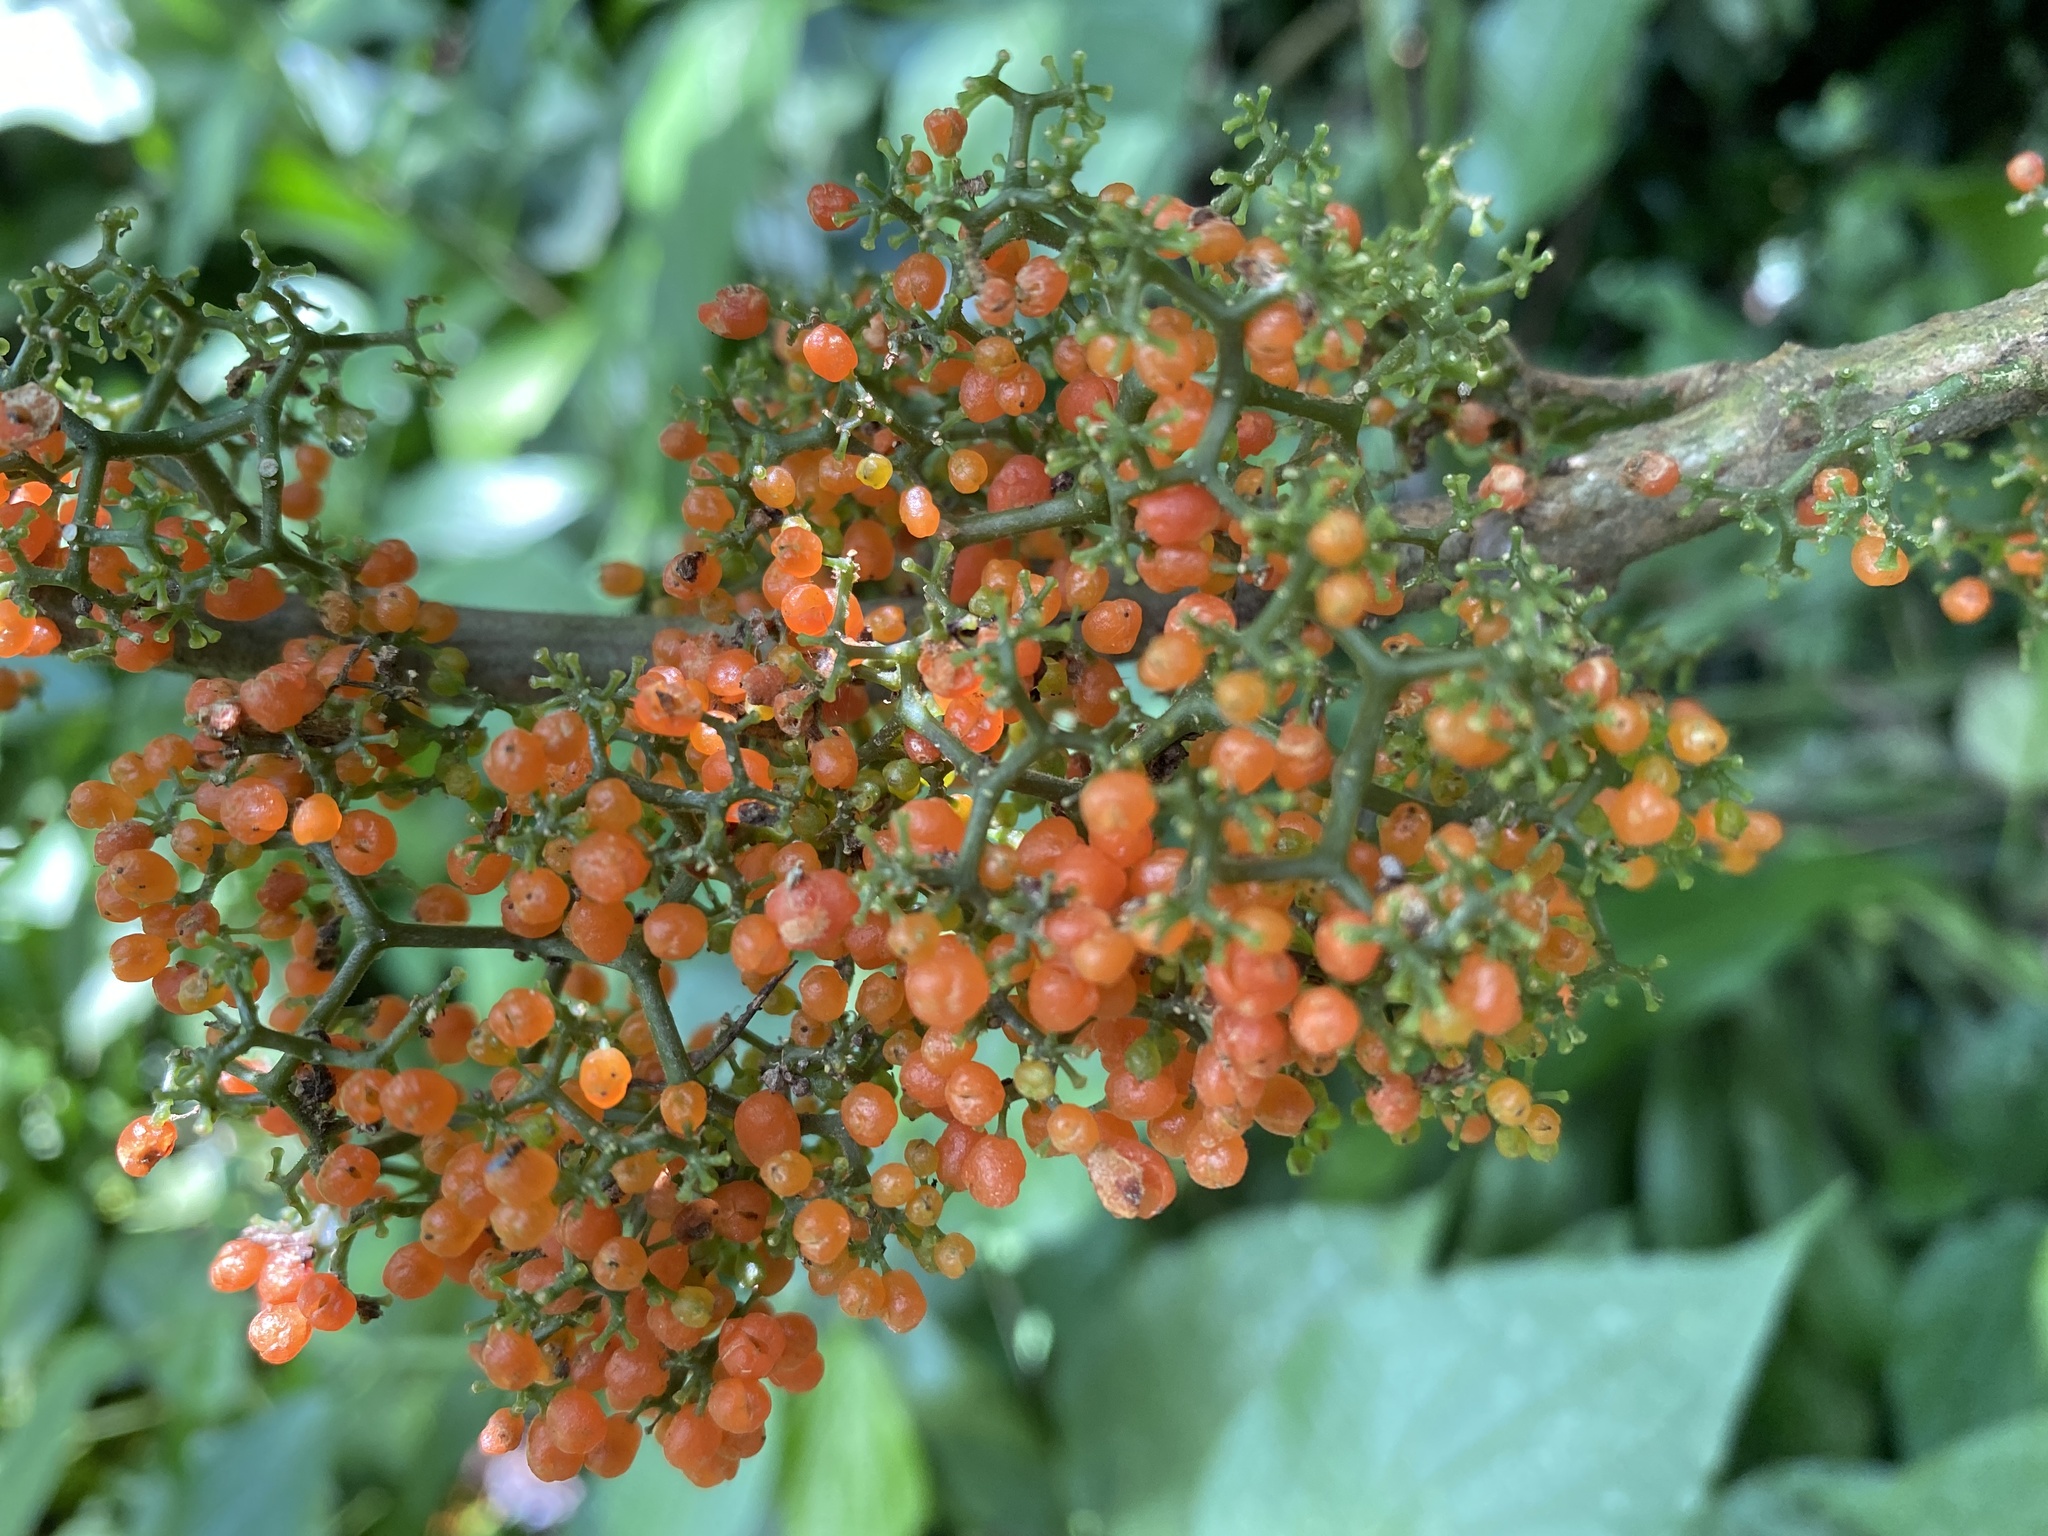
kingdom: Plantae
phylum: Tracheophyta
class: Magnoliopsida
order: Rosales
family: Urticaceae
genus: Urera
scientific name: Urera caracasana
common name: Flameberry
